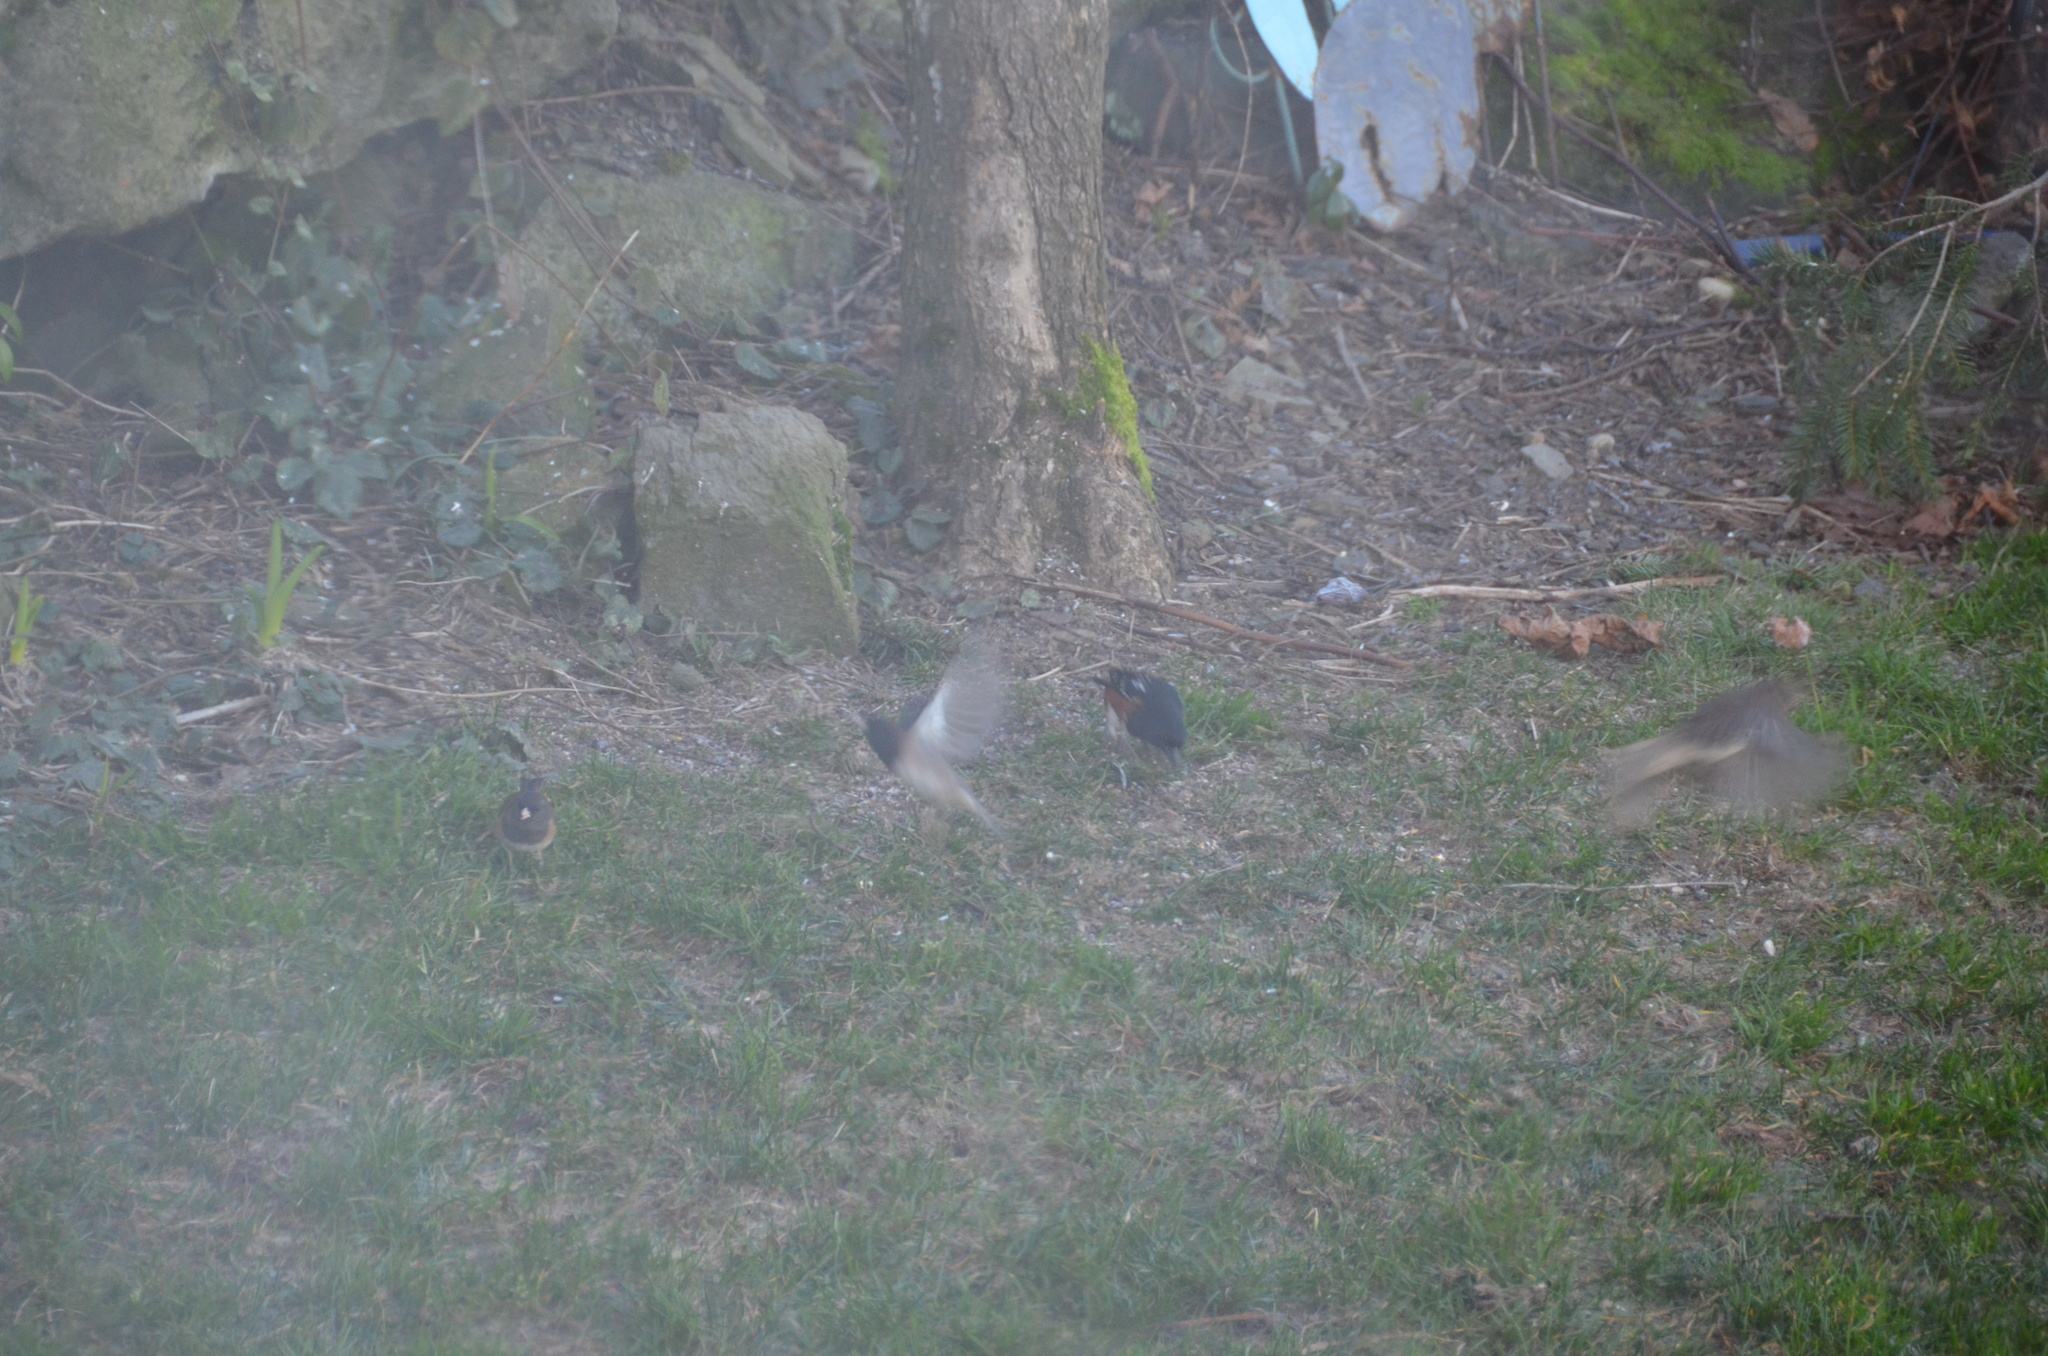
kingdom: Animalia
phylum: Chordata
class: Aves
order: Passeriformes
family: Passerellidae
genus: Pipilo
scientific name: Pipilo maculatus
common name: Spotted towhee
